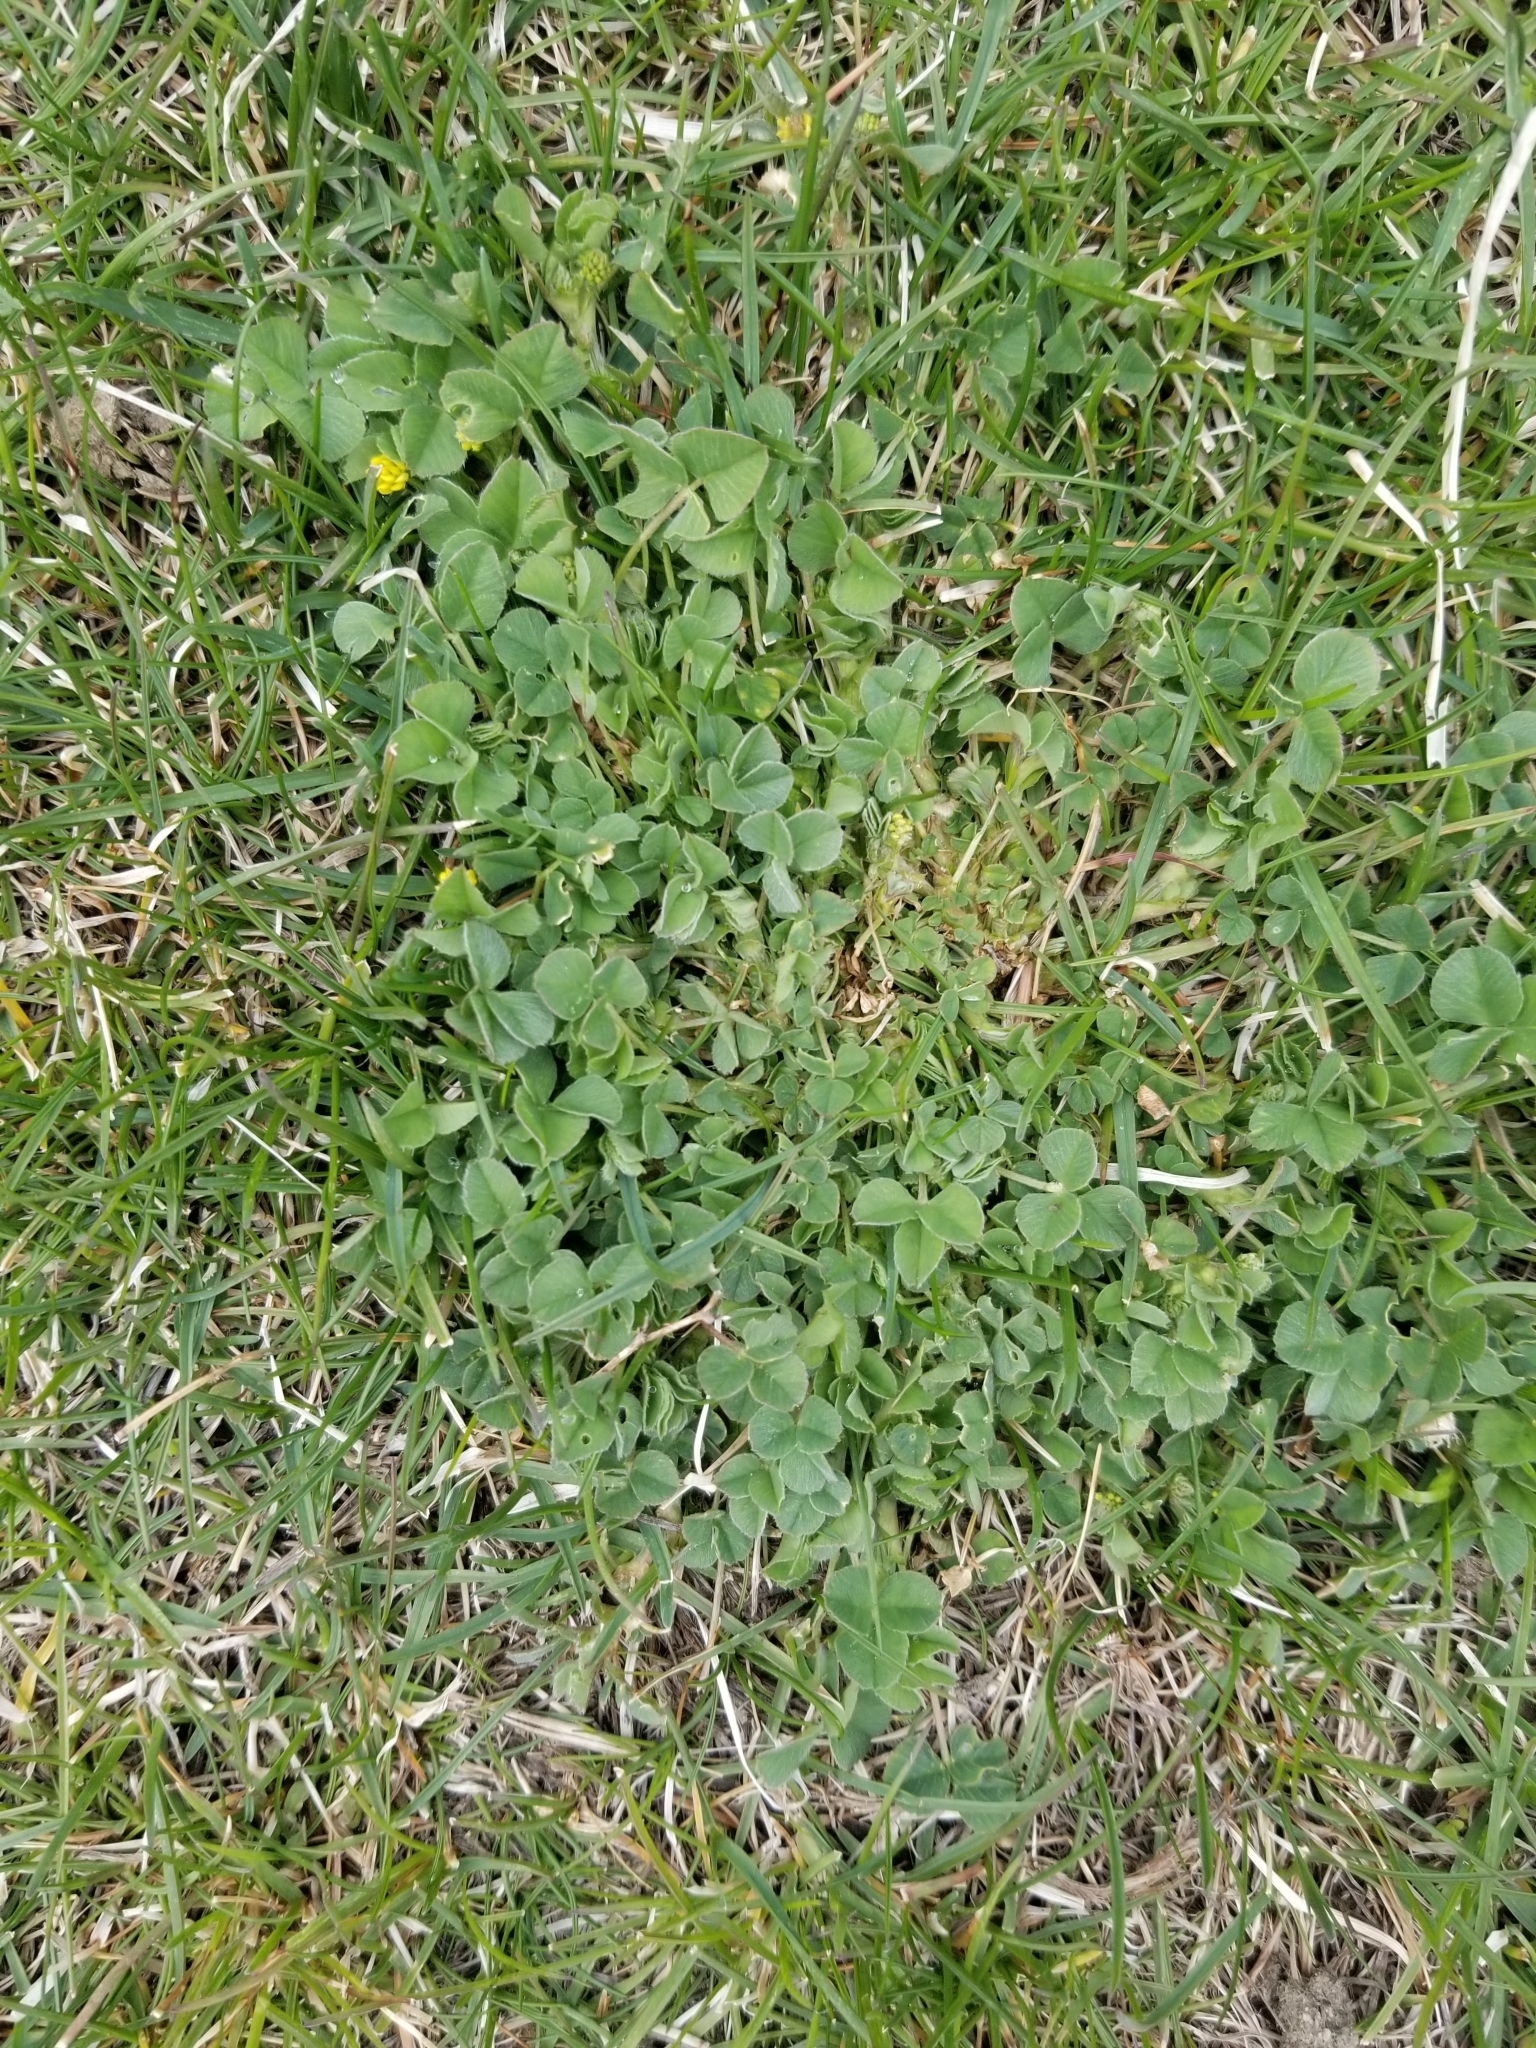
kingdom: Plantae
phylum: Tracheophyta
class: Magnoliopsida
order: Fabales
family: Fabaceae
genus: Medicago
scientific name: Medicago lupulina
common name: Black medick
